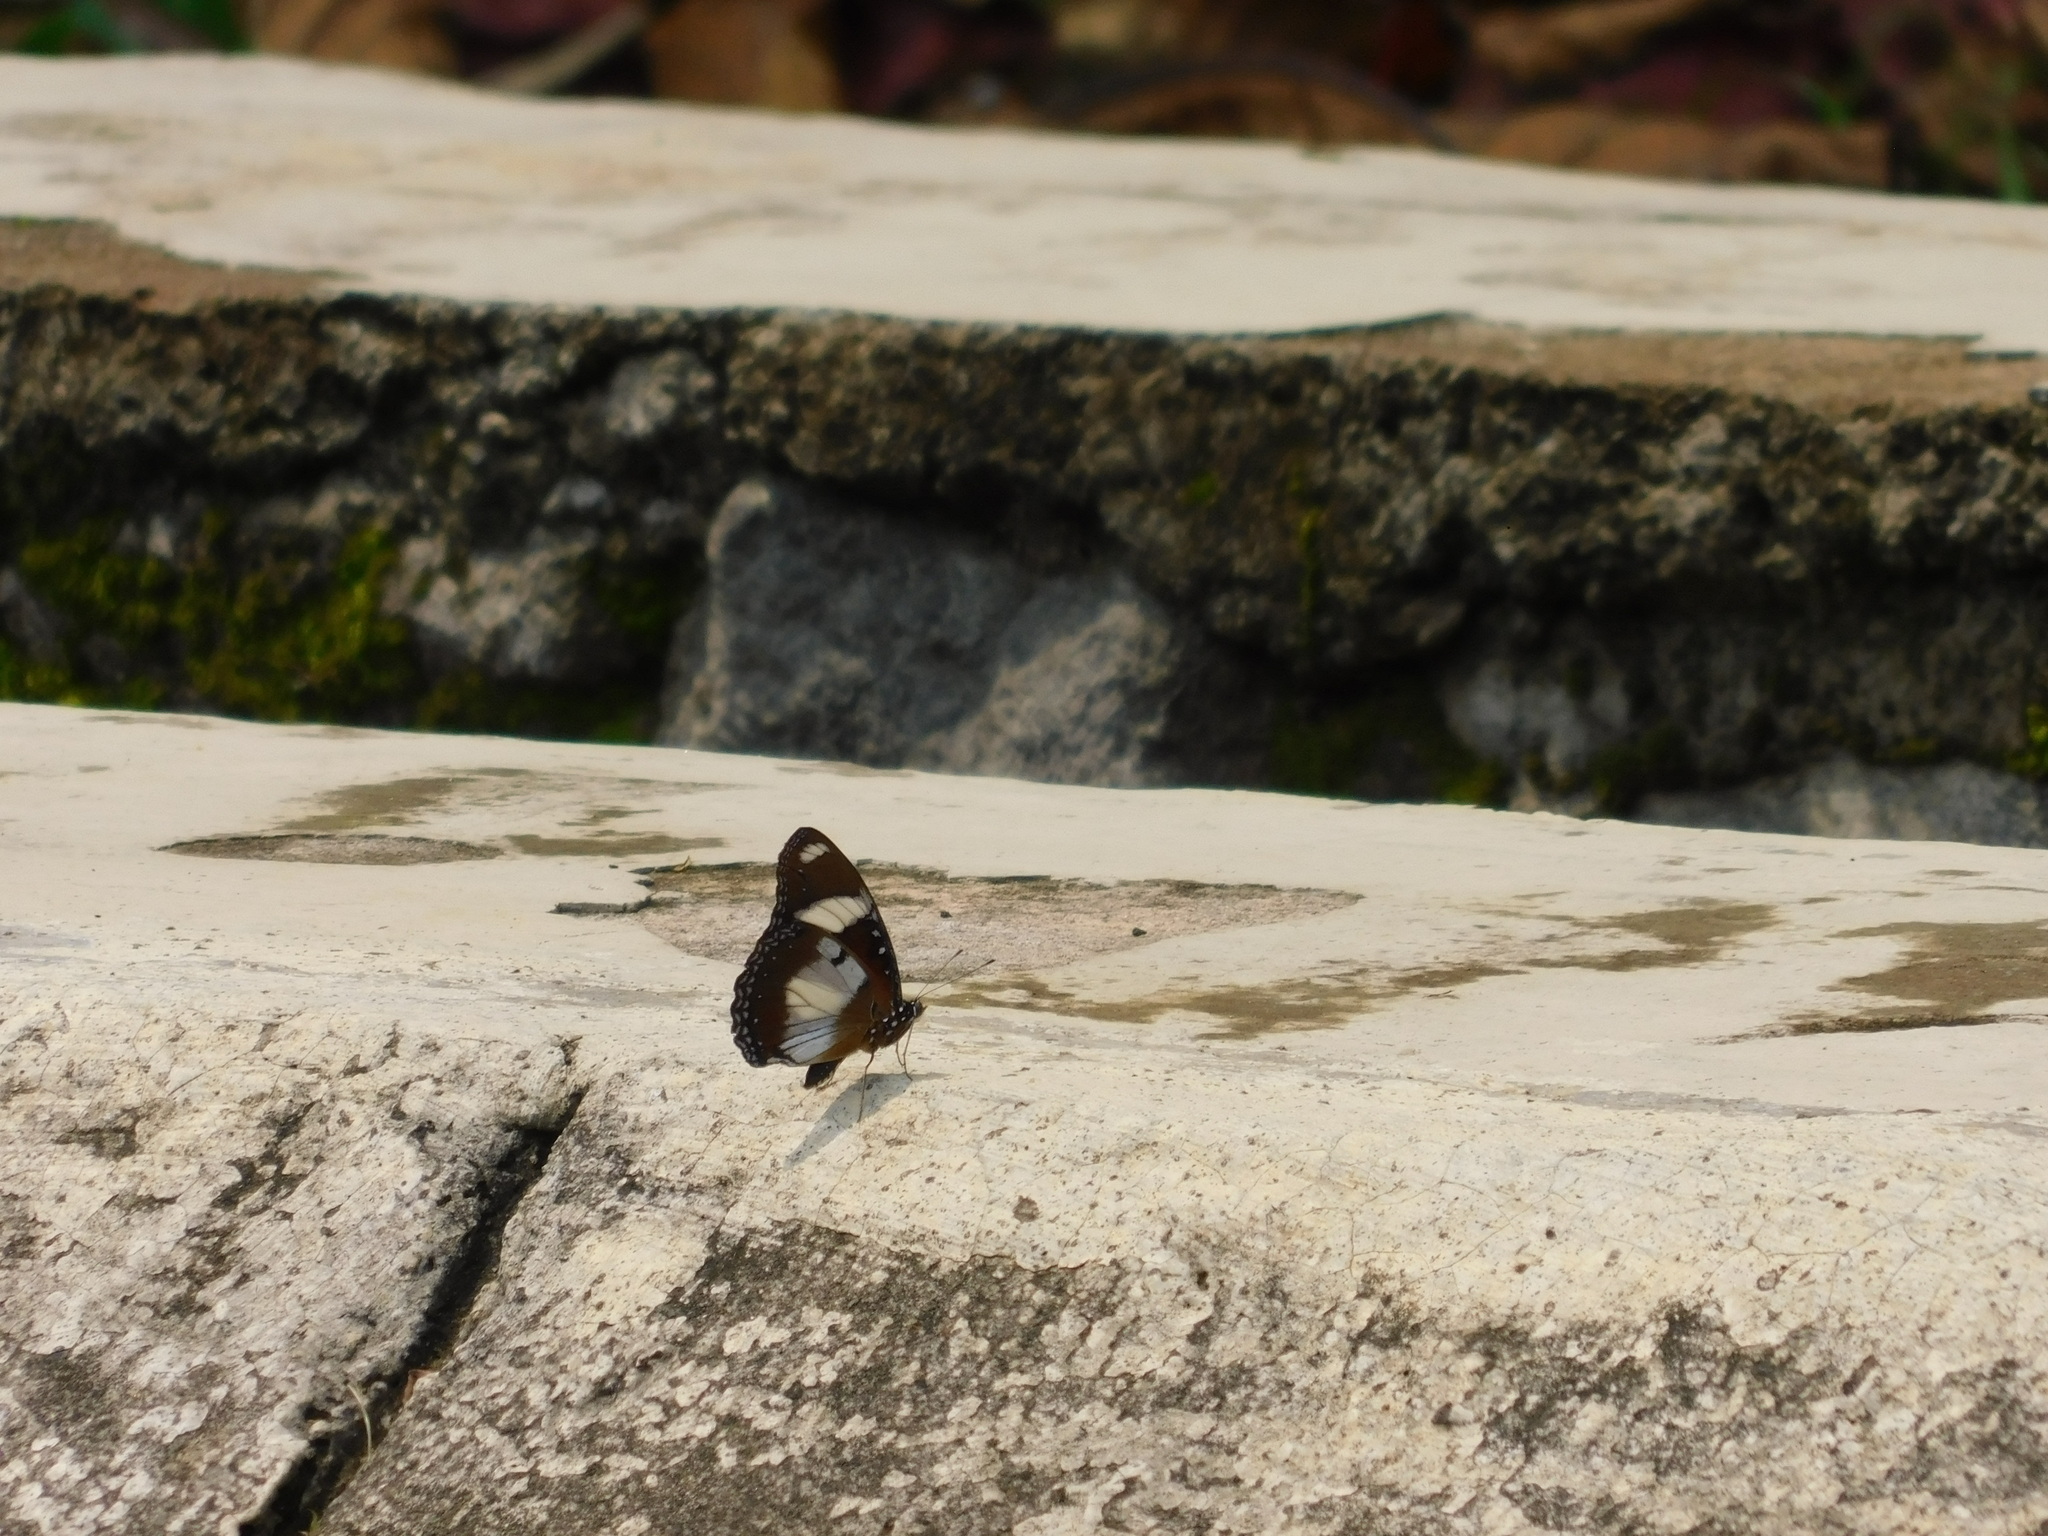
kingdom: Animalia
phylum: Arthropoda
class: Insecta
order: Lepidoptera
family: Nymphalidae
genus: Hypolimnas
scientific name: Hypolimnas misippus
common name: False plain tiger
